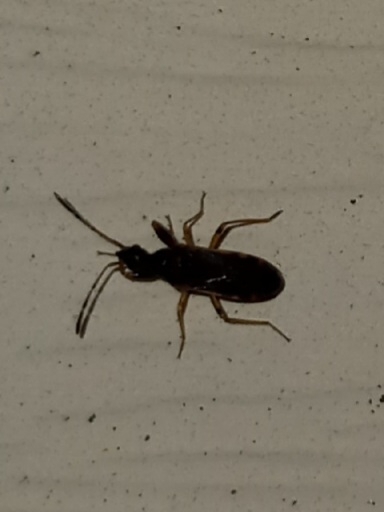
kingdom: Animalia
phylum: Arthropoda
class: Insecta
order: Hemiptera
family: Rhyparochromidae
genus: Heraeus
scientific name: Heraeus plebejus
